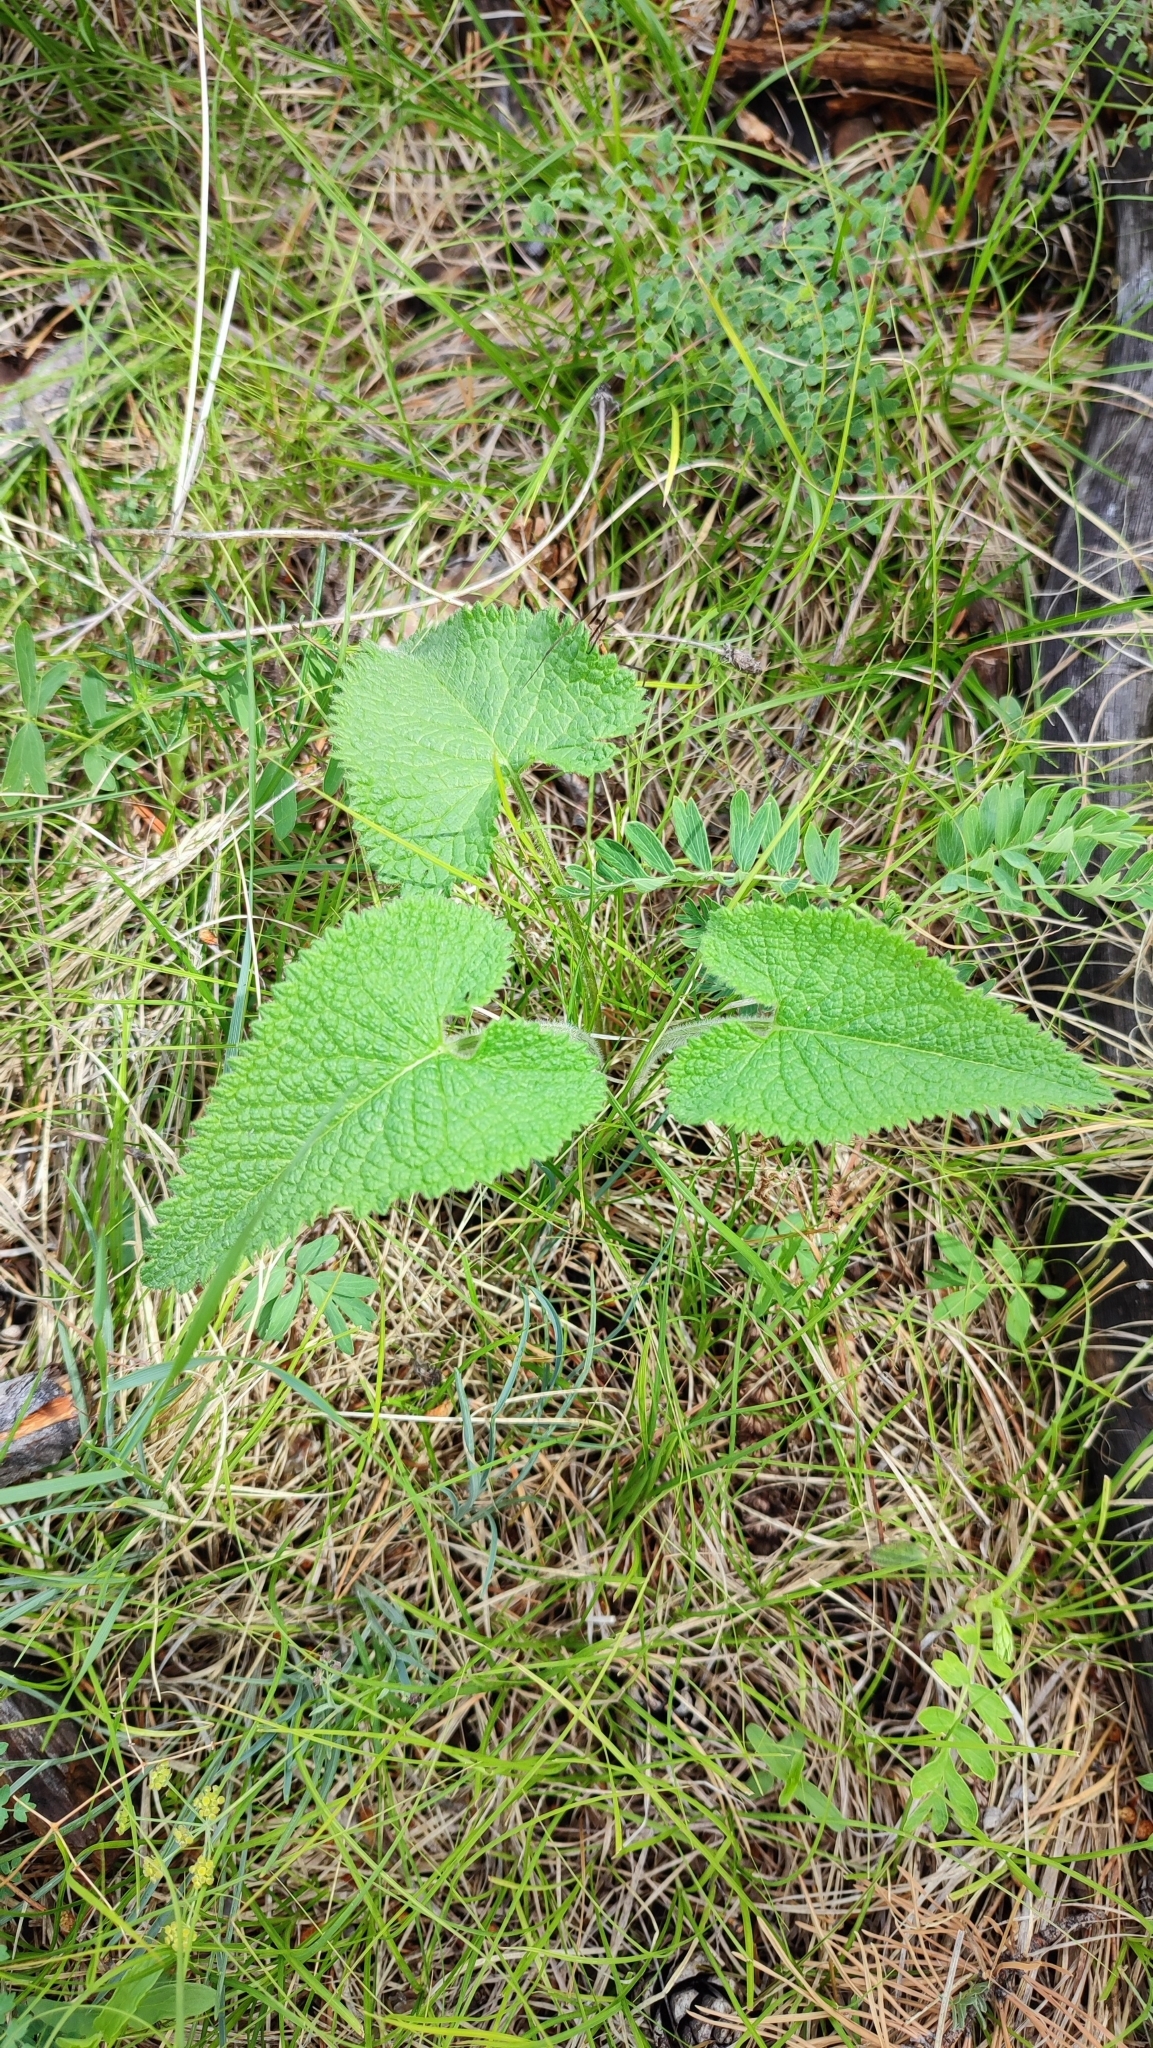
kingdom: Plantae
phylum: Tracheophyta
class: Magnoliopsida
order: Lamiales
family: Lamiaceae
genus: Phlomoides
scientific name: Phlomoides tuberosa
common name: Tuberous jerusalem sage
